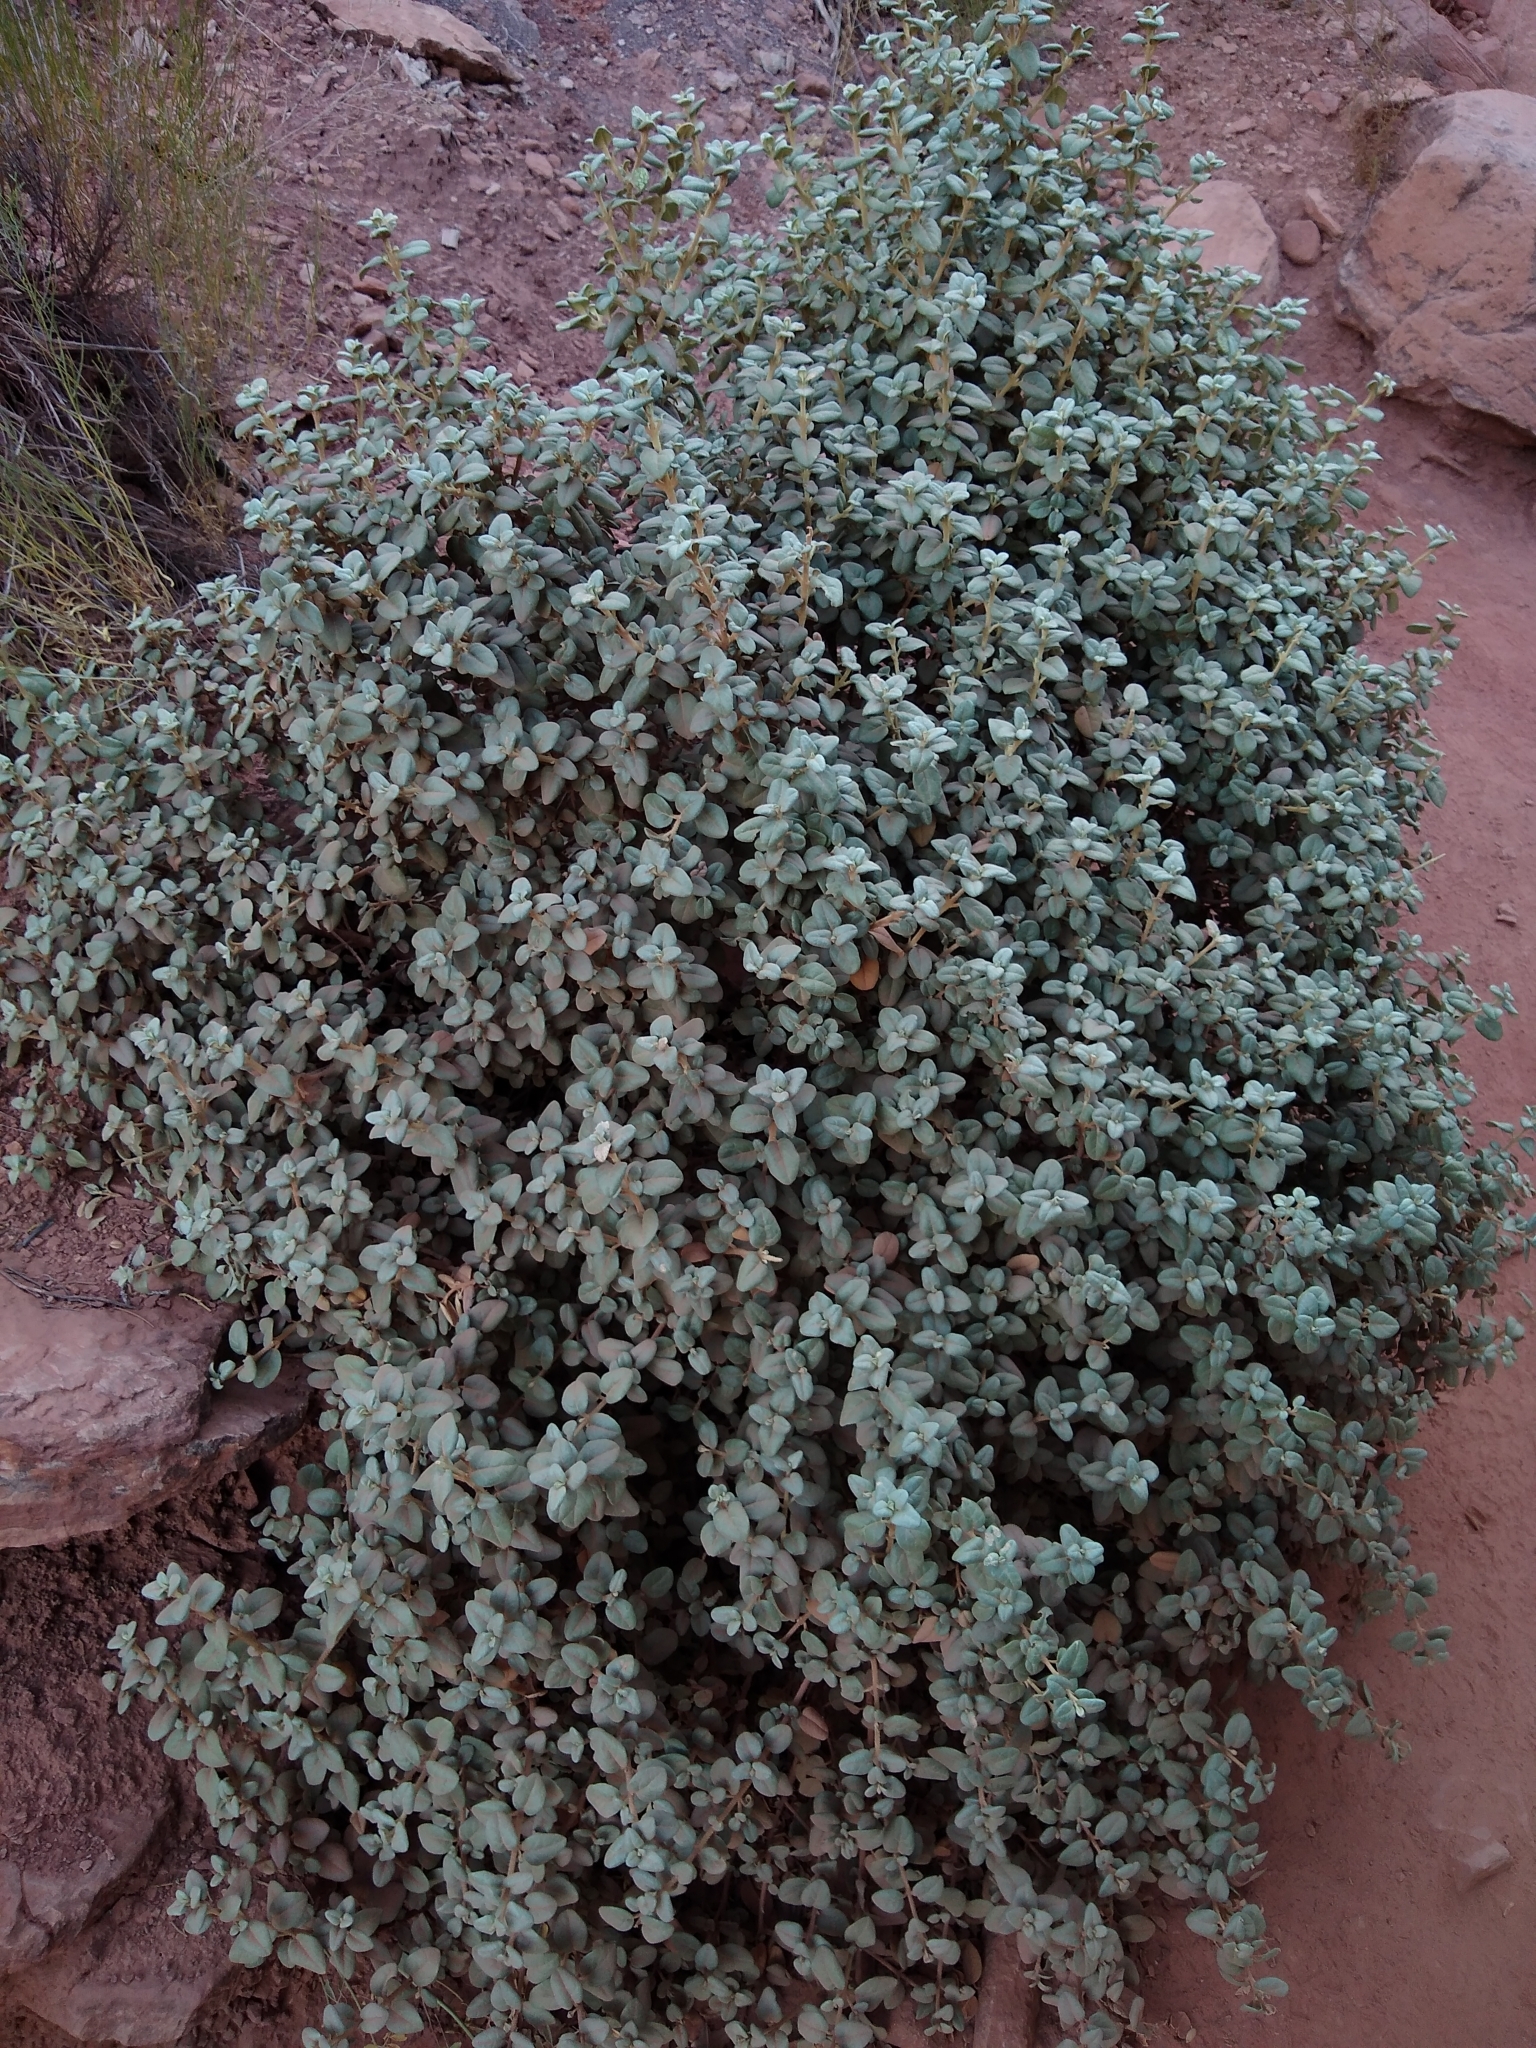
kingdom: Plantae
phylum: Tracheophyta
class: Magnoliopsida
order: Rosales
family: Elaeagnaceae
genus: Shepherdia
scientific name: Shepherdia rotundifolia
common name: Silverscale
